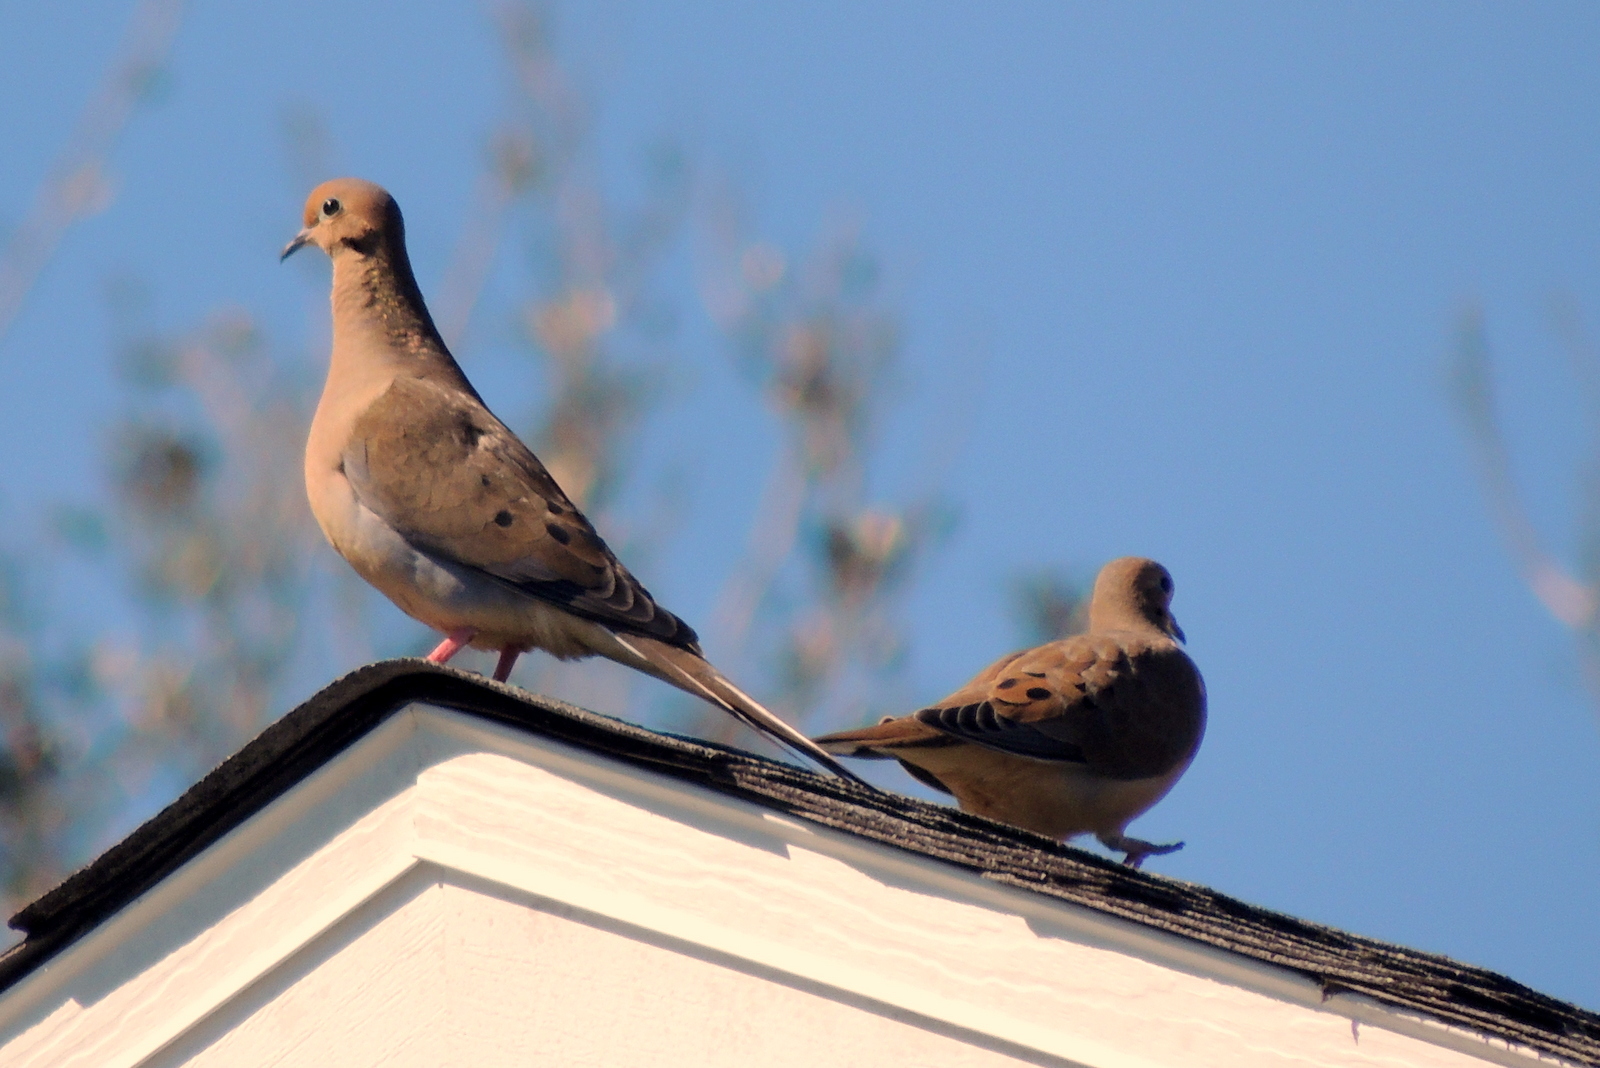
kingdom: Animalia
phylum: Chordata
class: Aves
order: Columbiformes
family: Columbidae
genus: Zenaida
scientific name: Zenaida macroura
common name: Mourning dove
